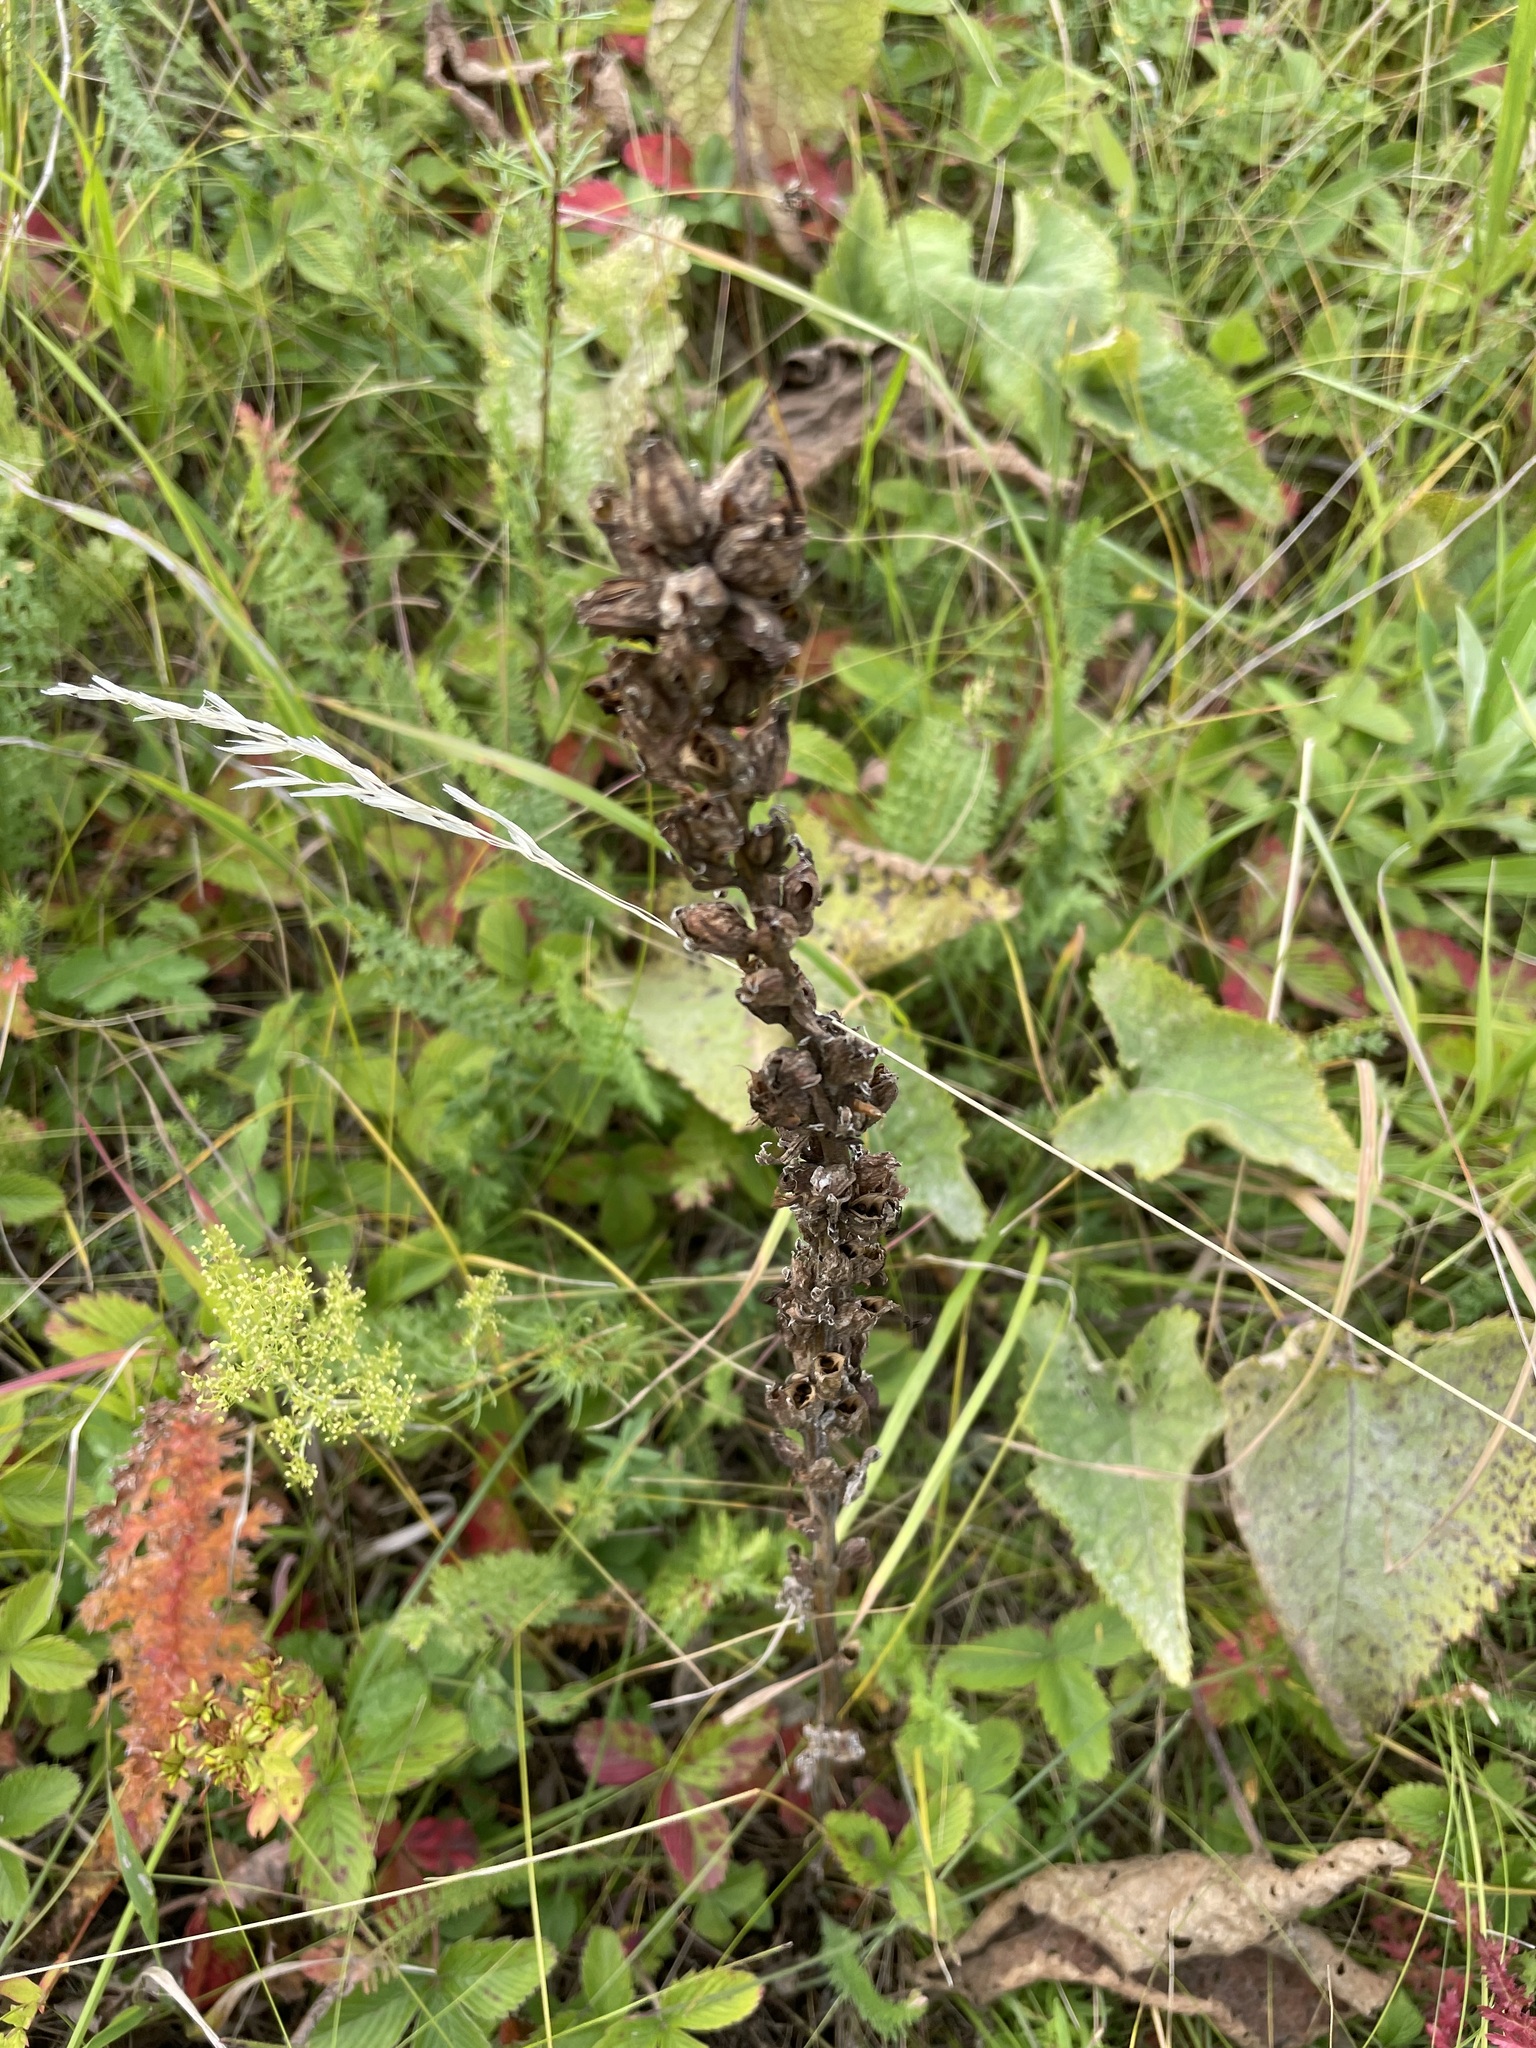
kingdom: Plantae
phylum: Tracheophyta
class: Magnoliopsida
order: Lamiales
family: Orobanchaceae
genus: Pedicularis
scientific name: Pedicularis kaufmannii
